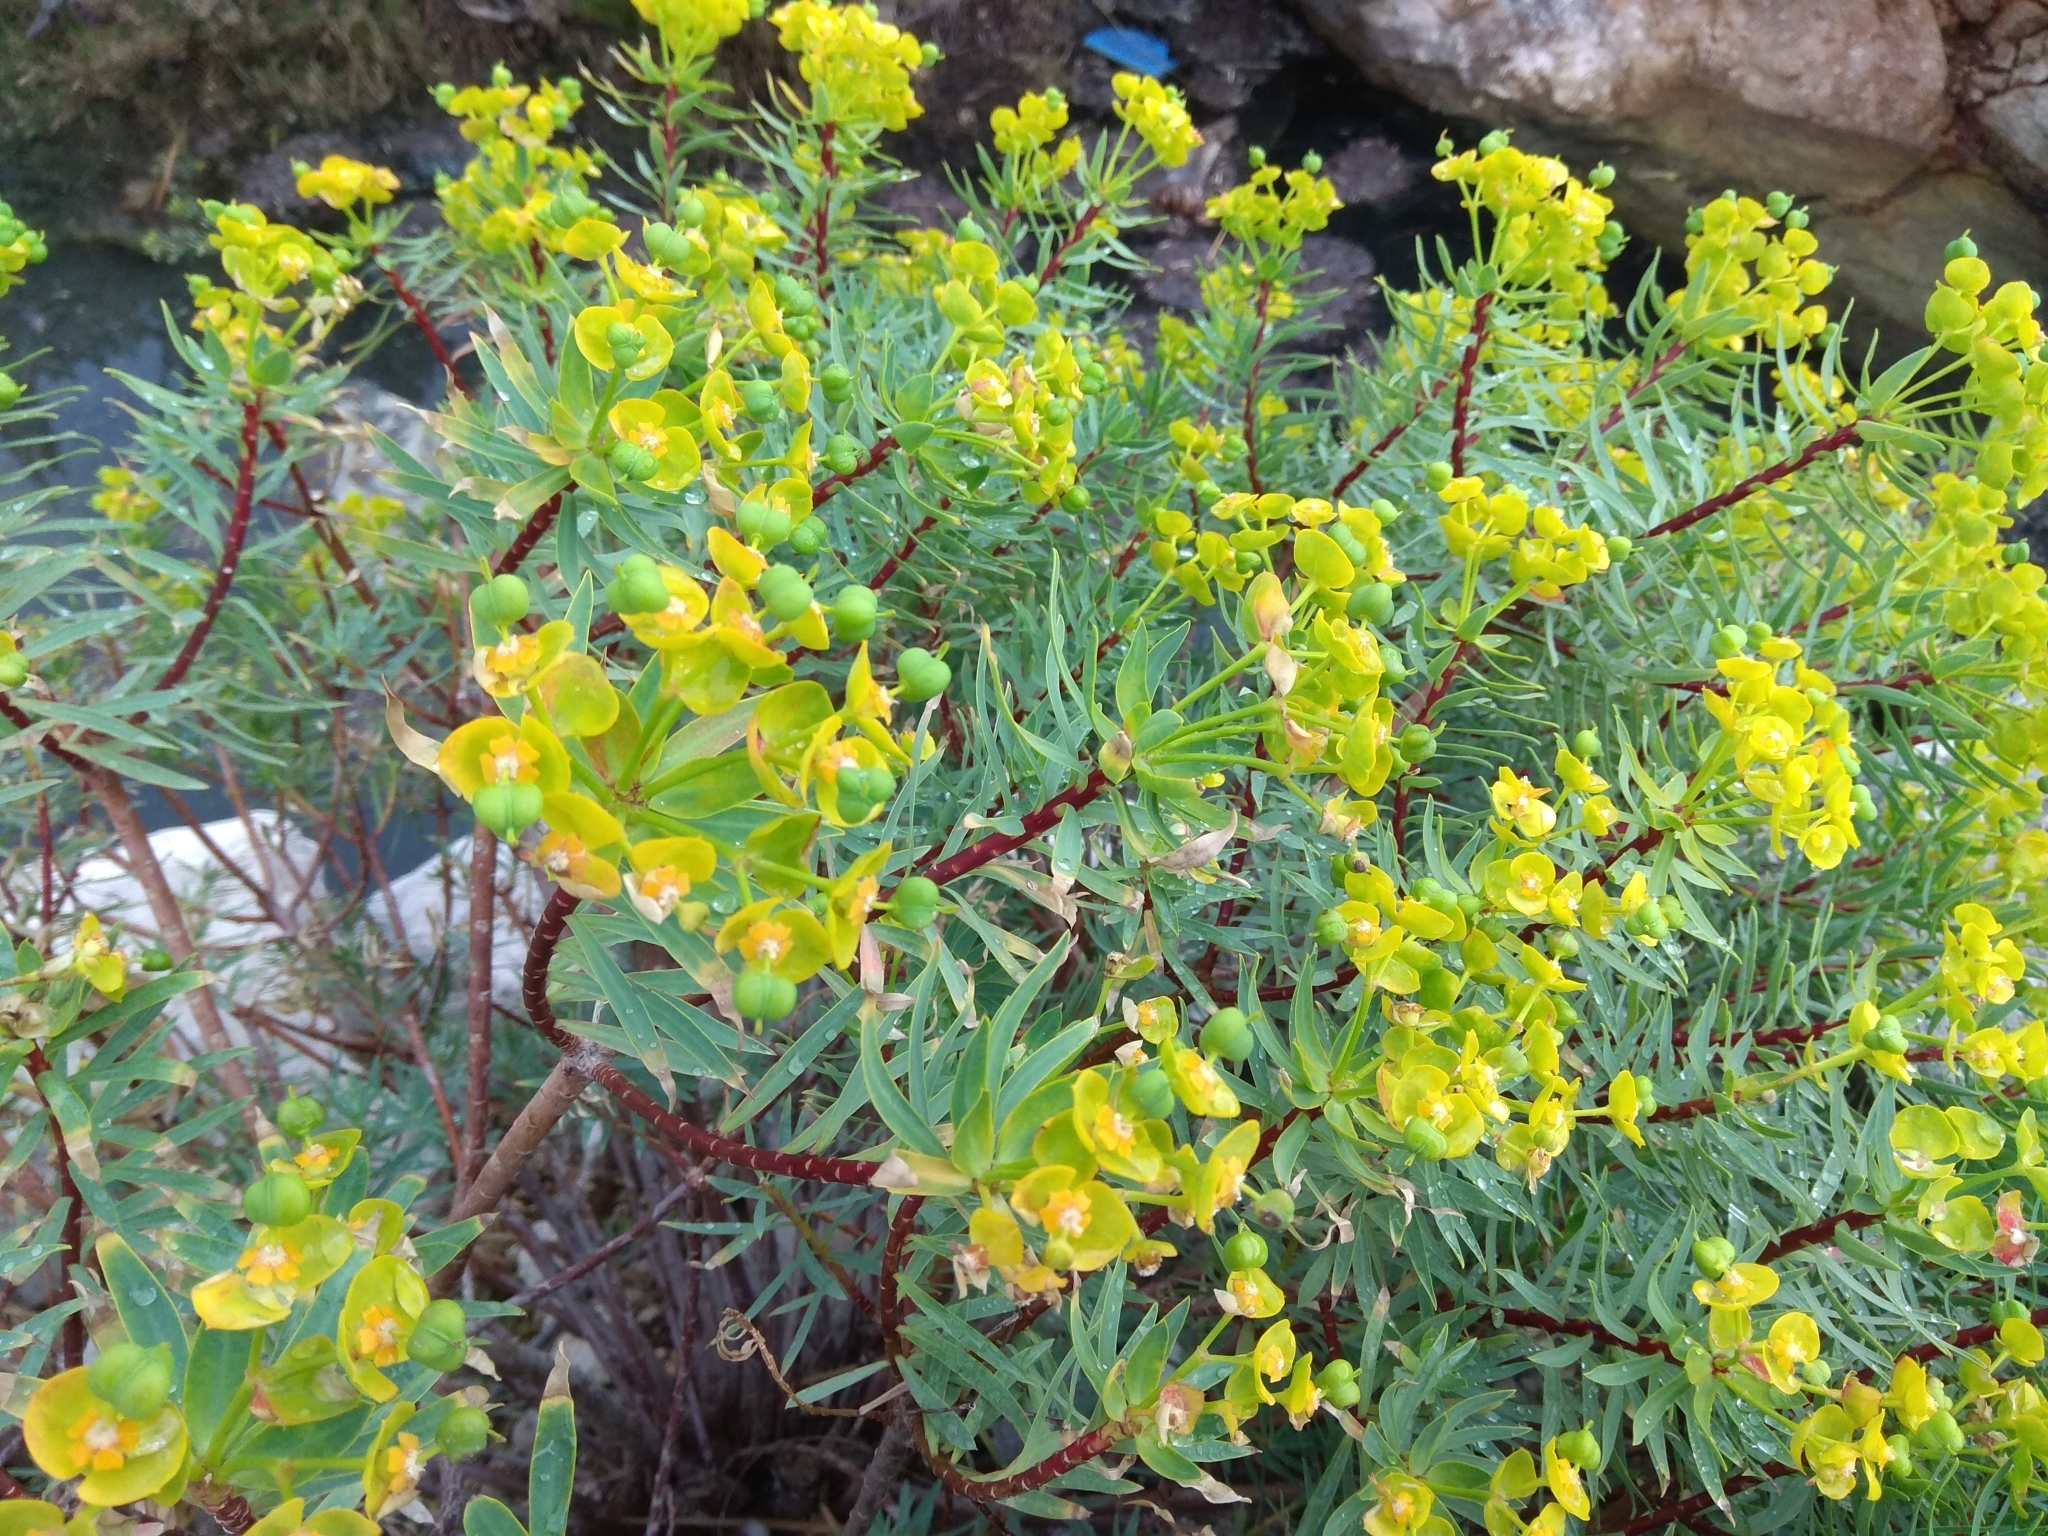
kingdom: Plantae
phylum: Tracheophyta
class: Magnoliopsida
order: Malpighiales
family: Euphorbiaceae
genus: Euphorbia
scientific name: Euphorbia dendroides
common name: Tree spurge
